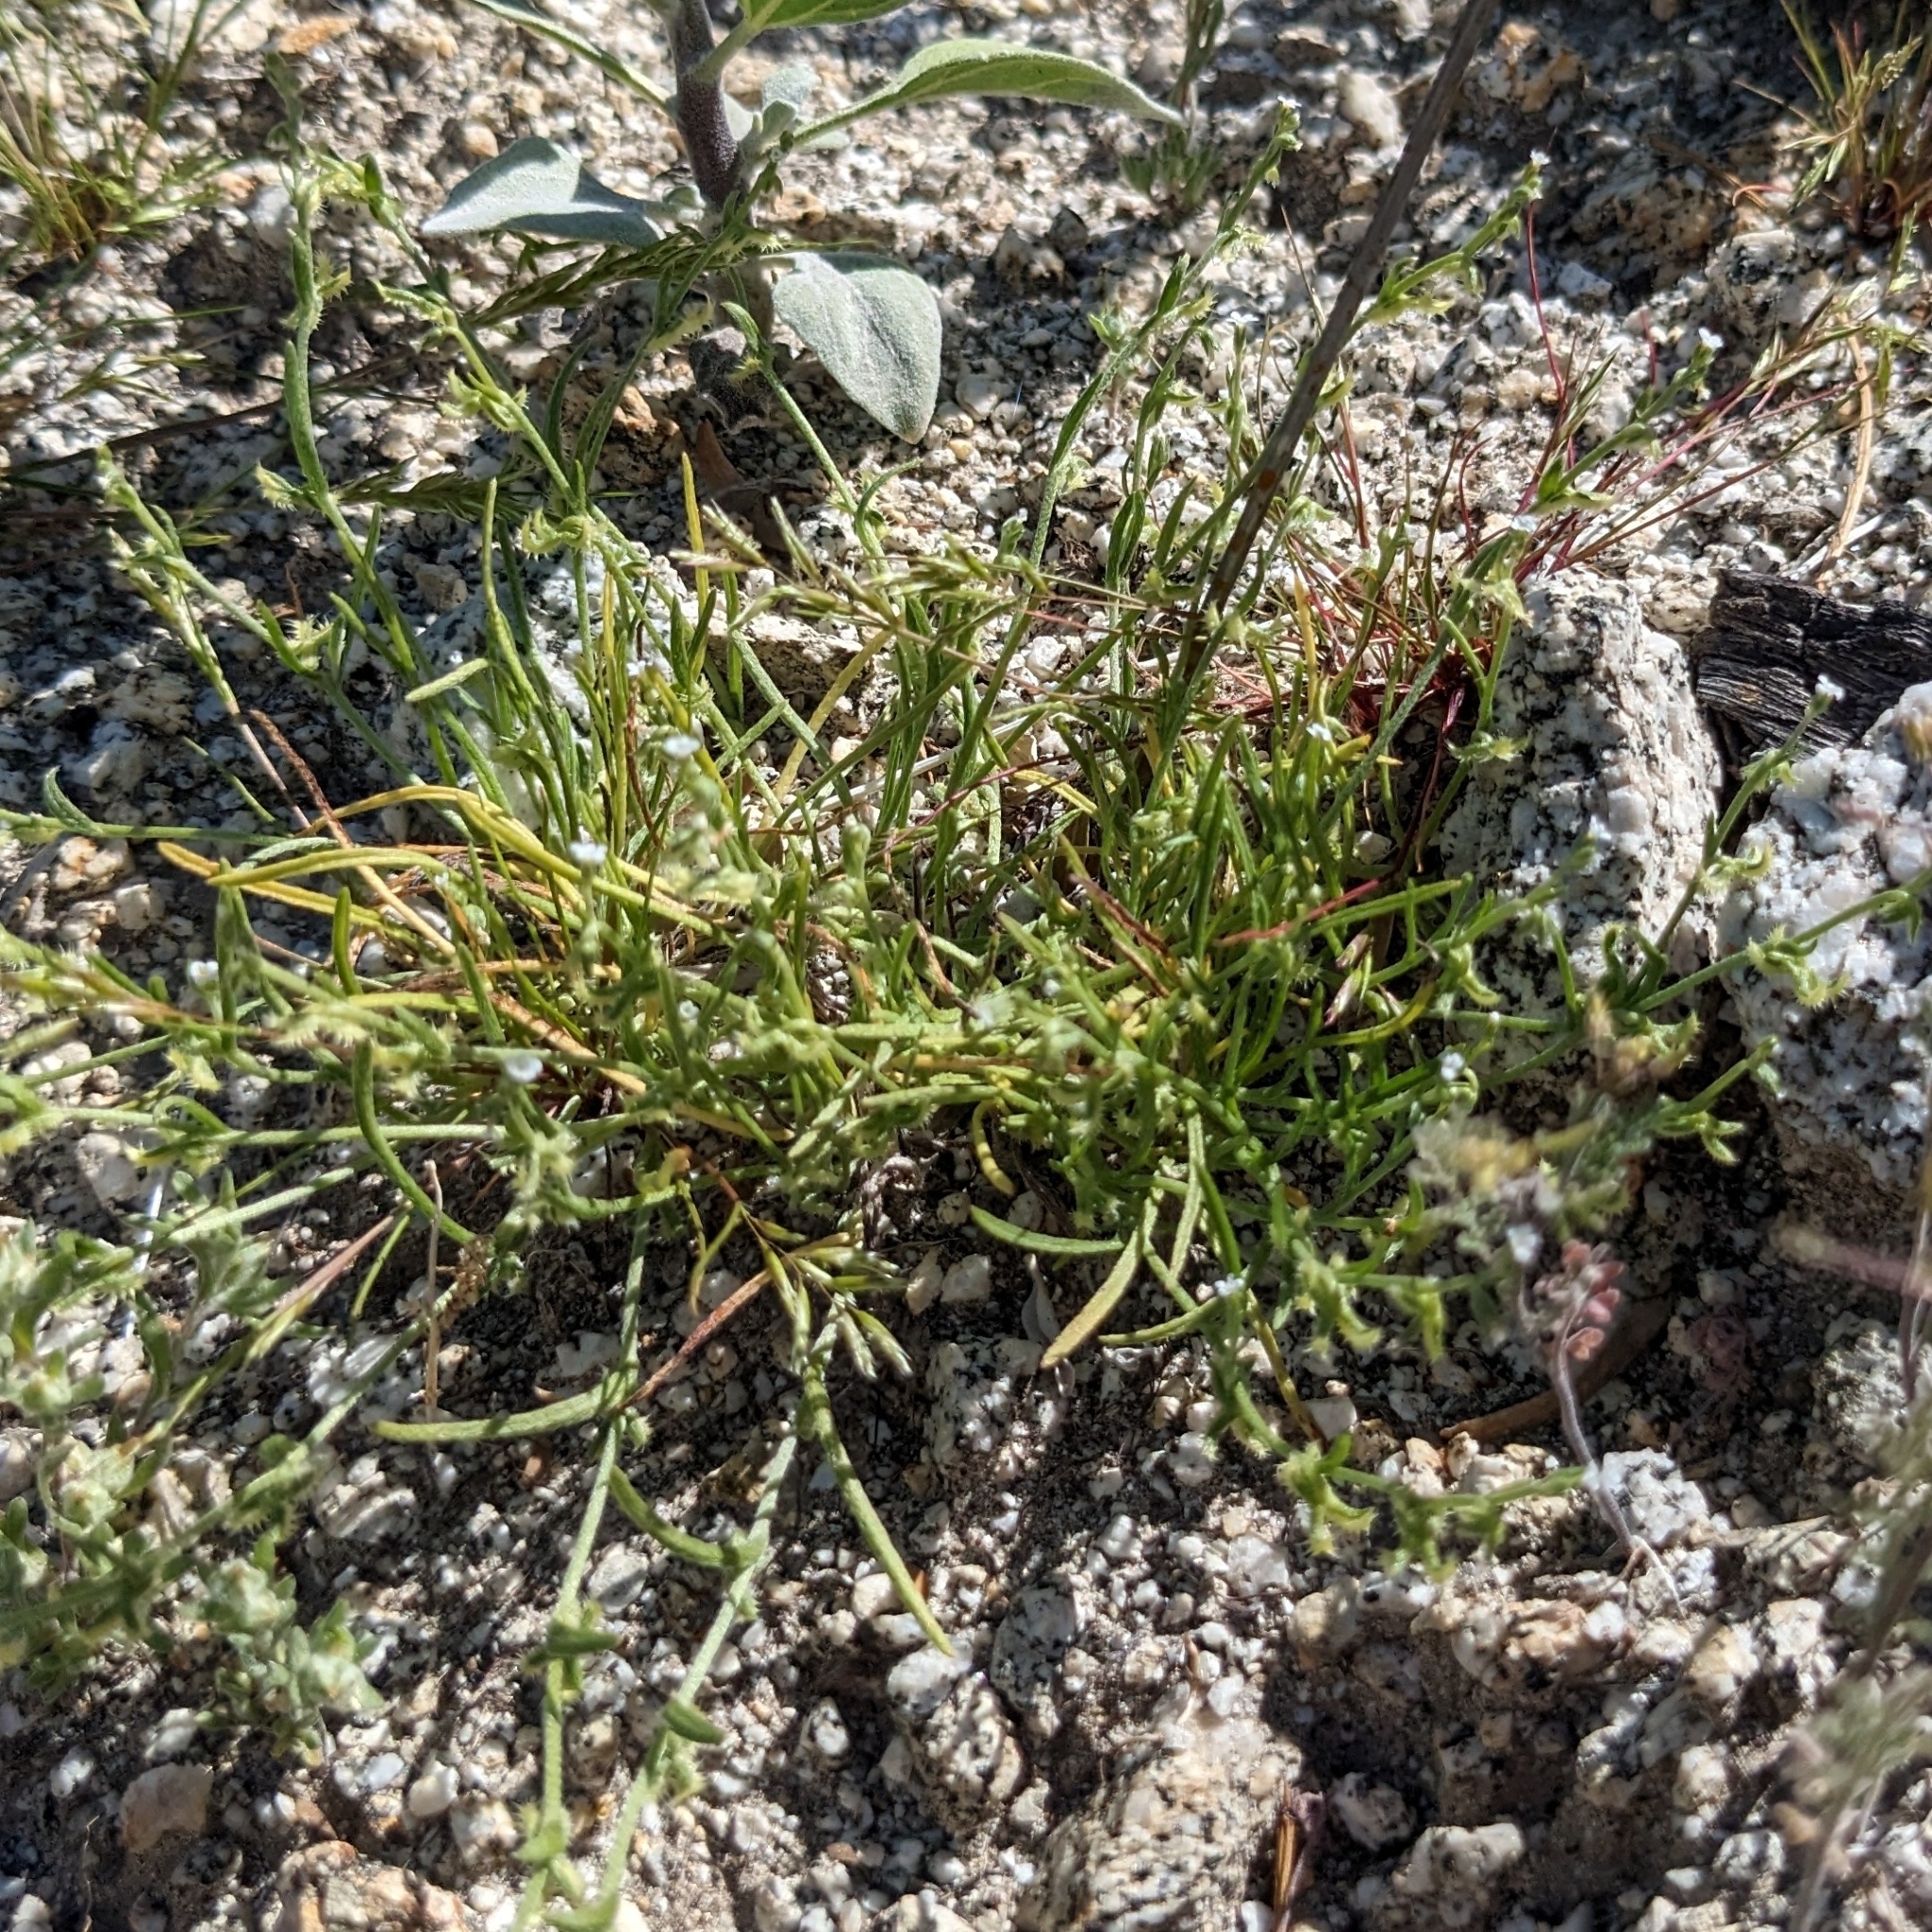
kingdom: Plantae
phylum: Tracheophyta
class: Magnoliopsida
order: Boraginales
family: Boraginaceae
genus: Pectocarya
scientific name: Pectocarya recurvata
